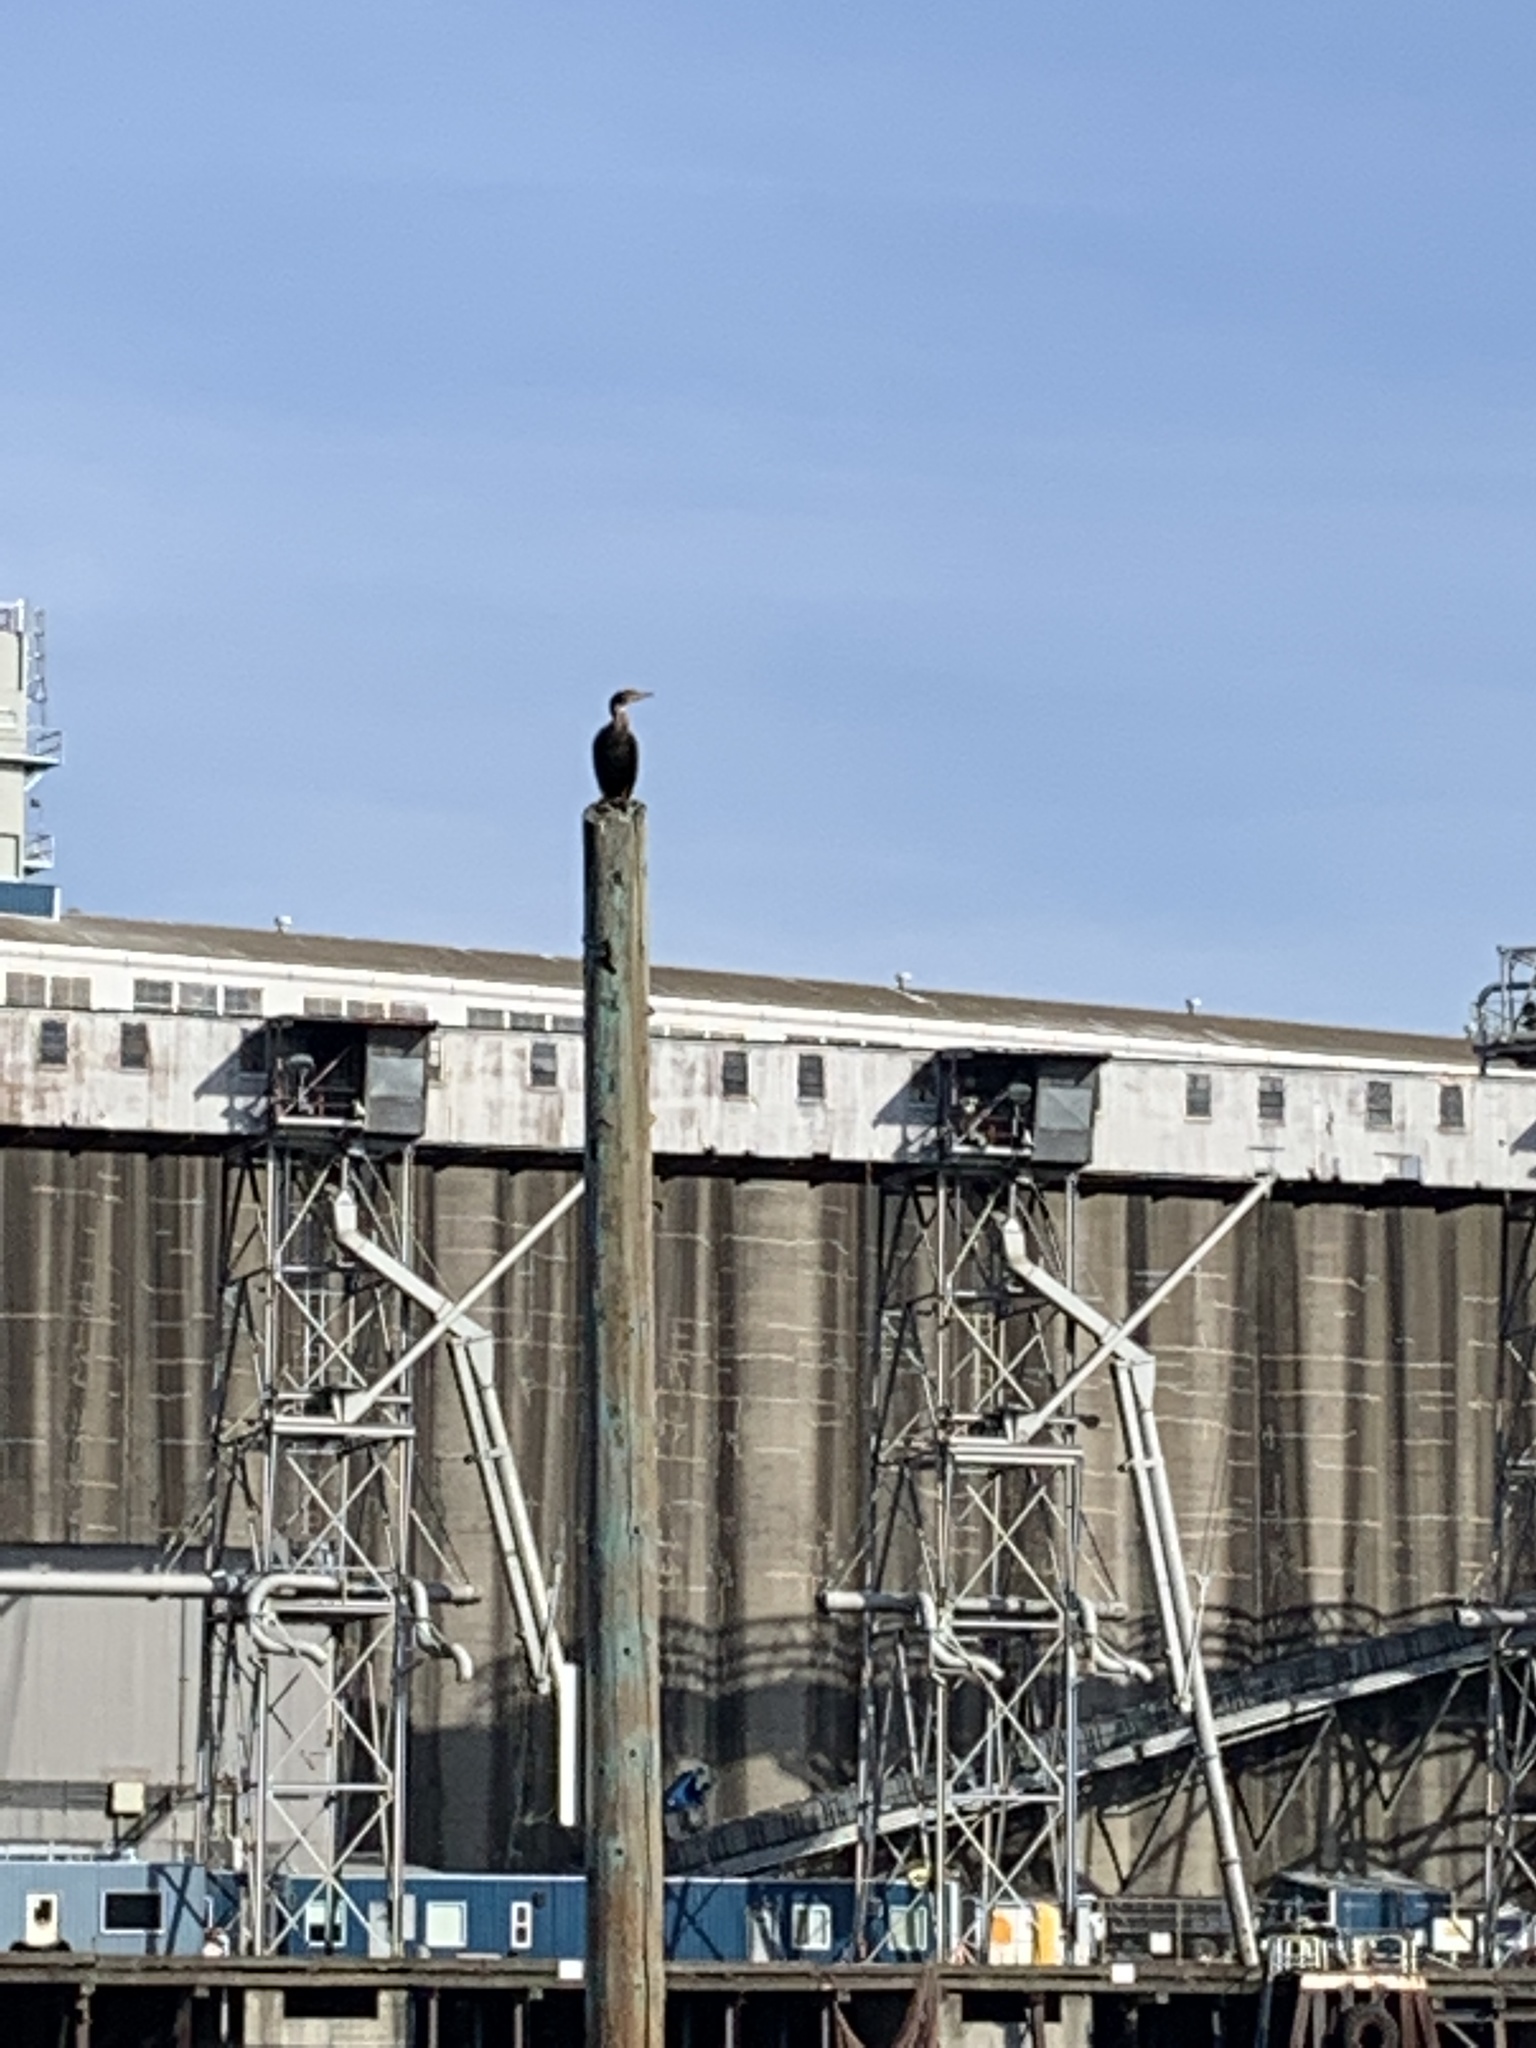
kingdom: Animalia
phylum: Chordata
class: Aves
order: Suliformes
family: Phalacrocoracidae
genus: Phalacrocorax
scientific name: Phalacrocorax auritus
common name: Double-crested cormorant
